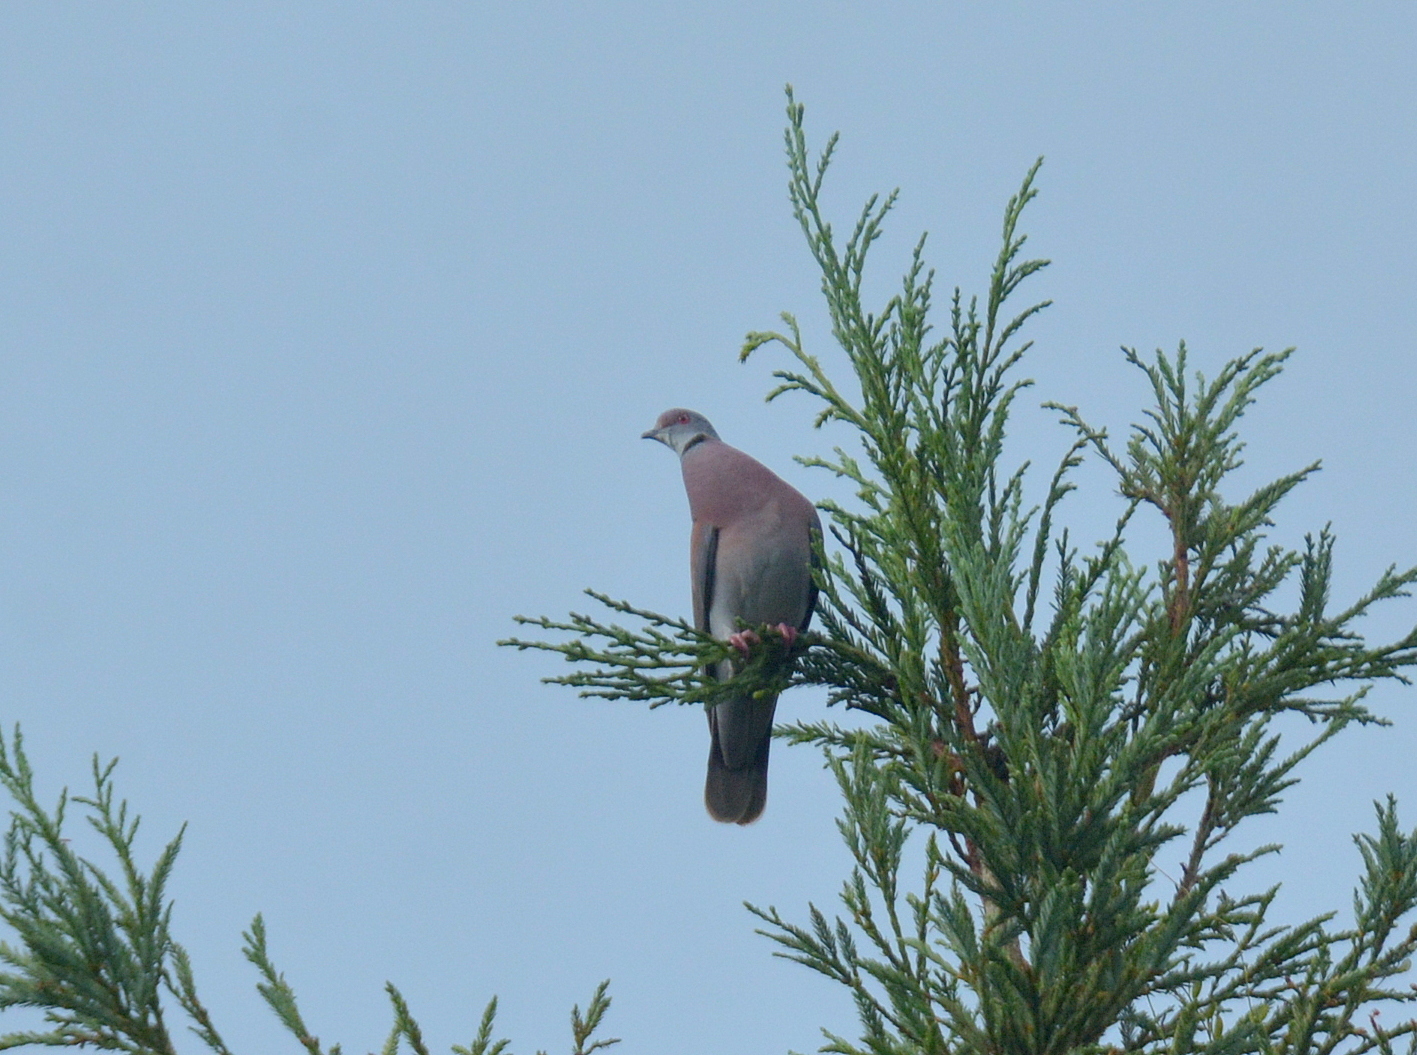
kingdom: Animalia
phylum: Chordata
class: Aves
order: Columbiformes
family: Columbidae
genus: Patagioenas
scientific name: Patagioenas cayennensis
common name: Pale-vented pigeon
